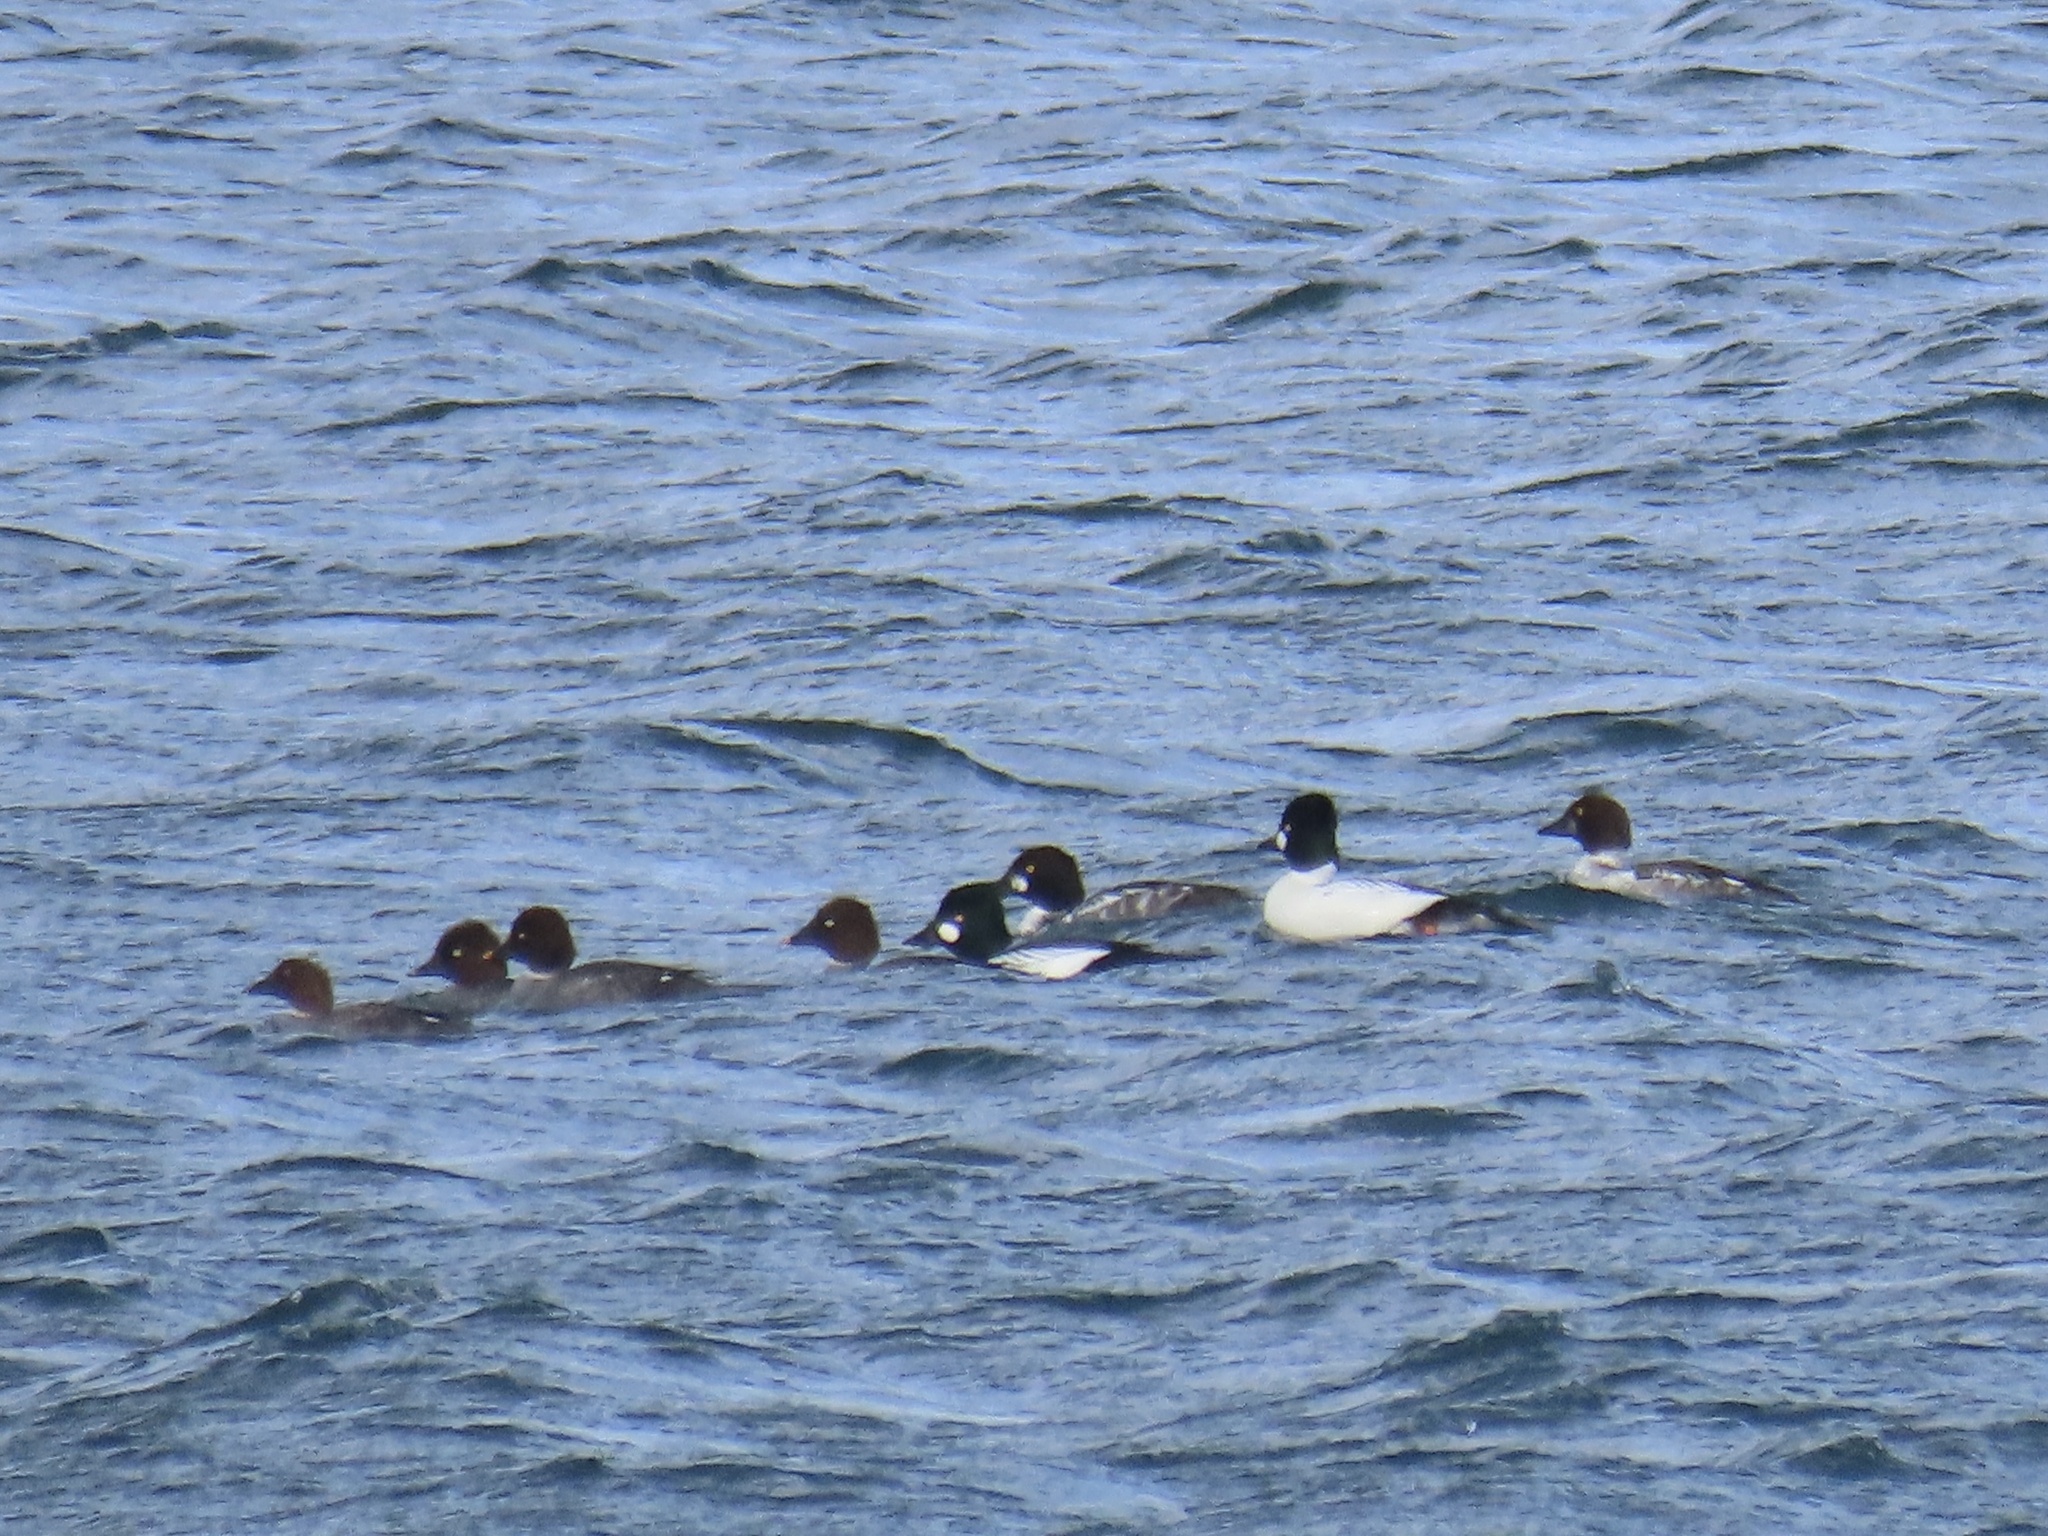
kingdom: Animalia
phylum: Chordata
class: Aves
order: Anseriformes
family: Anatidae
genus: Bucephala
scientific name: Bucephala clangula
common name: Common goldeneye
